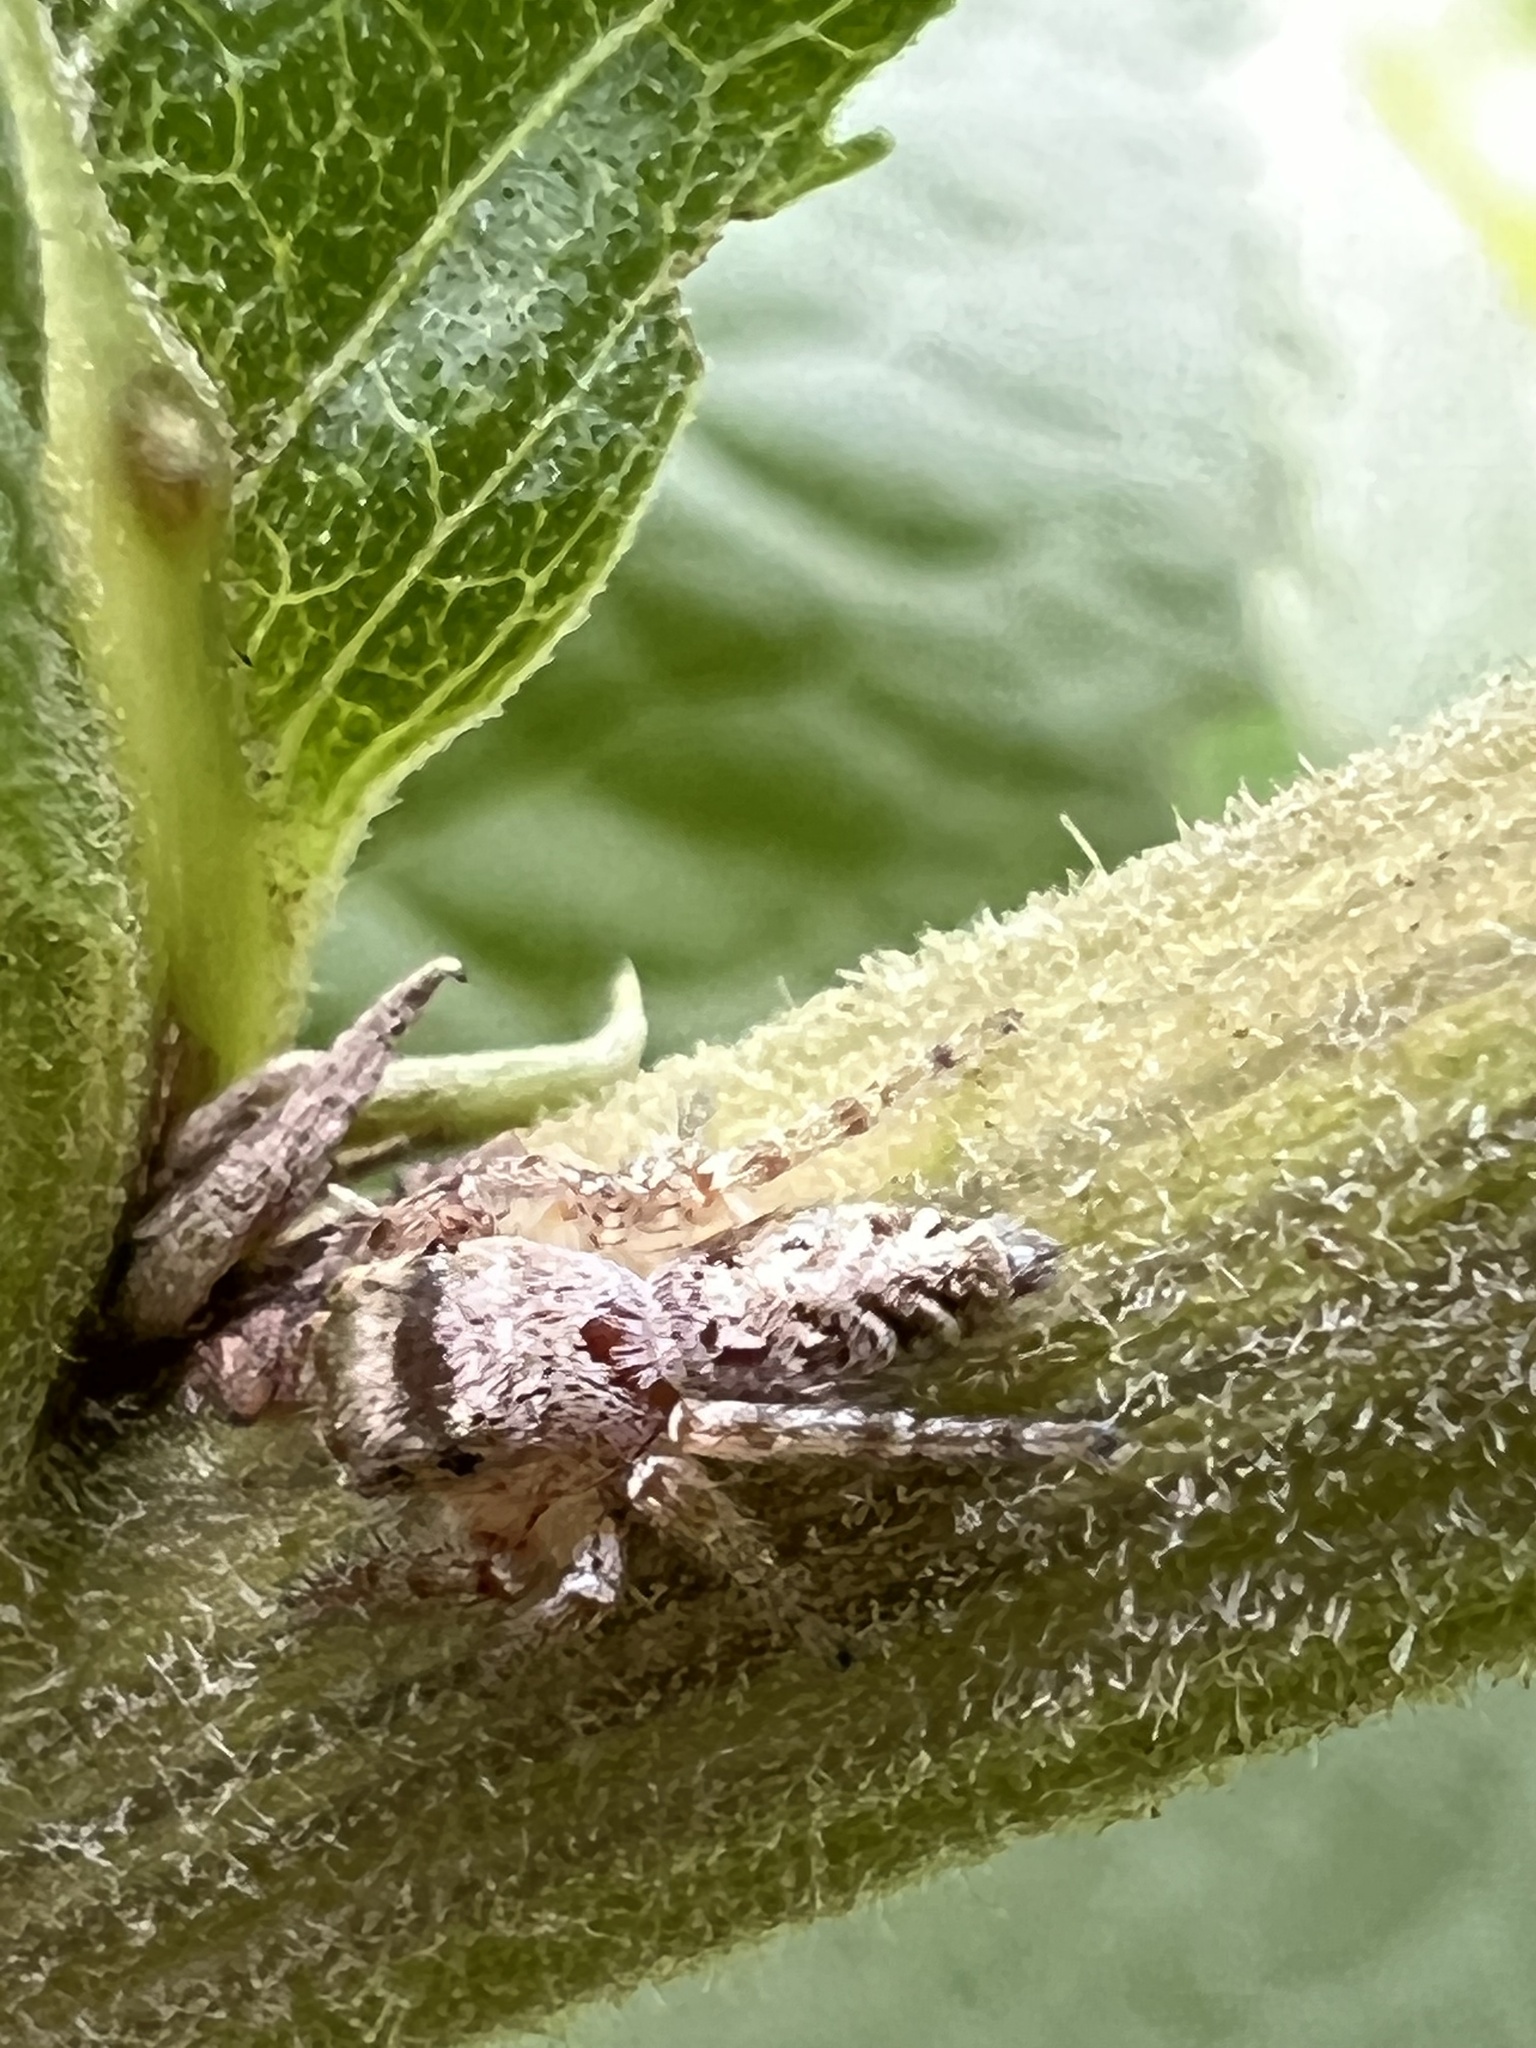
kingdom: Animalia
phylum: Arthropoda
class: Arachnida
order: Araneae
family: Salticidae
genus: Eris
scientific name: Eris militaris
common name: Bronze jumper
